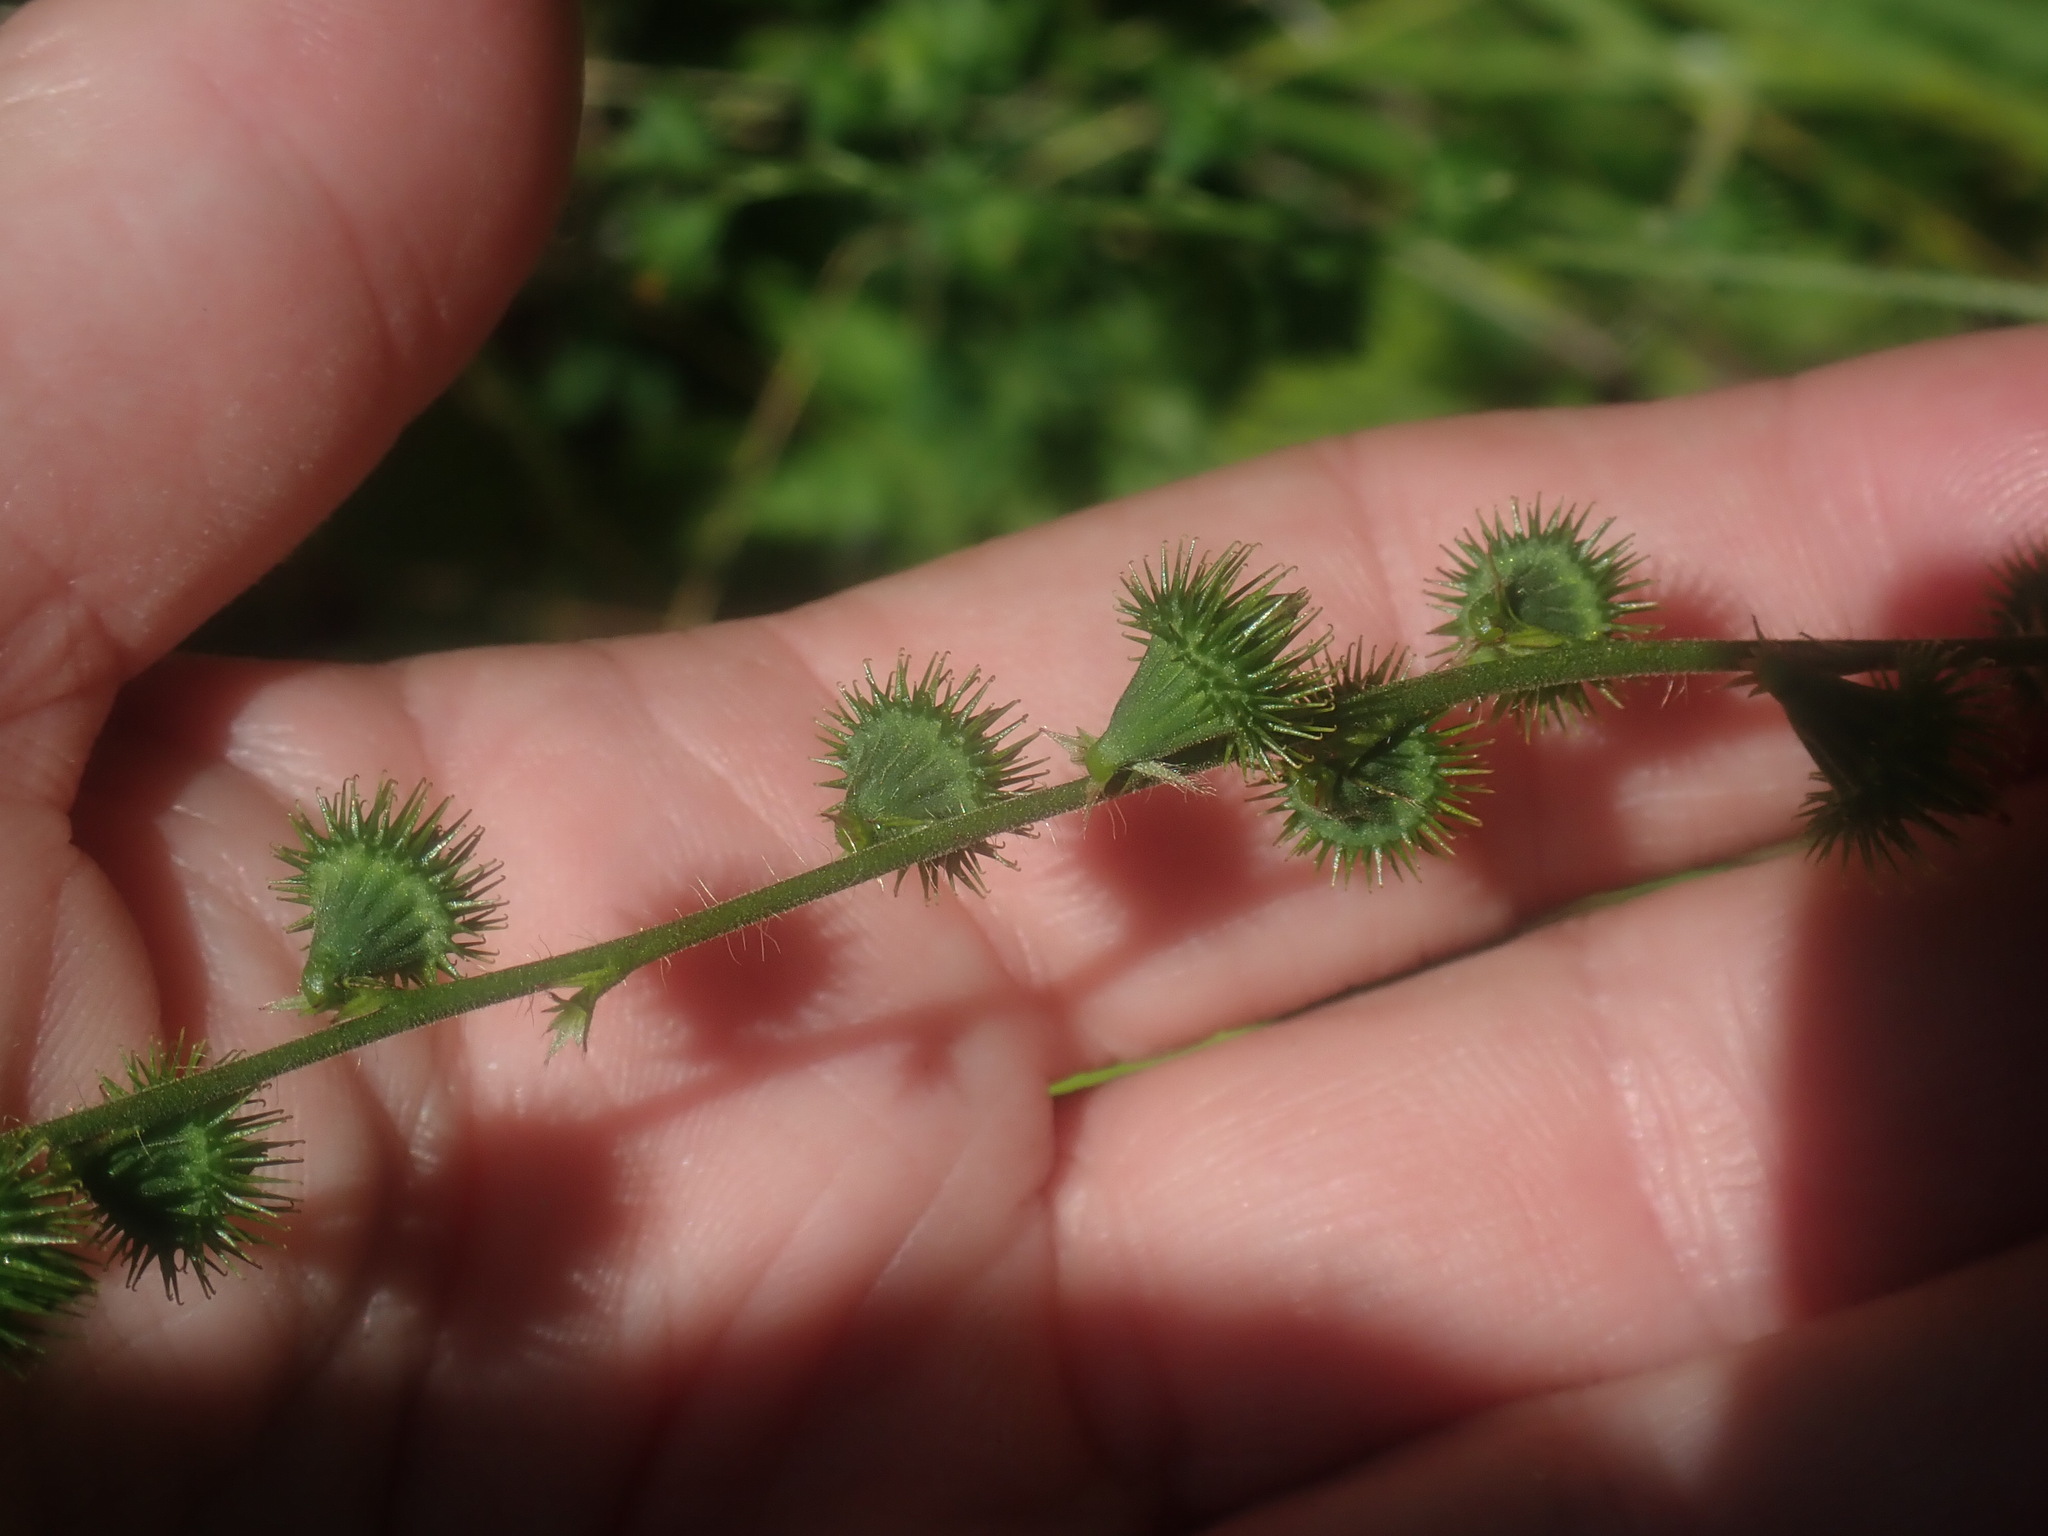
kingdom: Plantae
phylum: Tracheophyta
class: Magnoliopsida
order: Rosales
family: Rosaceae
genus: Agrimonia
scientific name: Agrimonia
